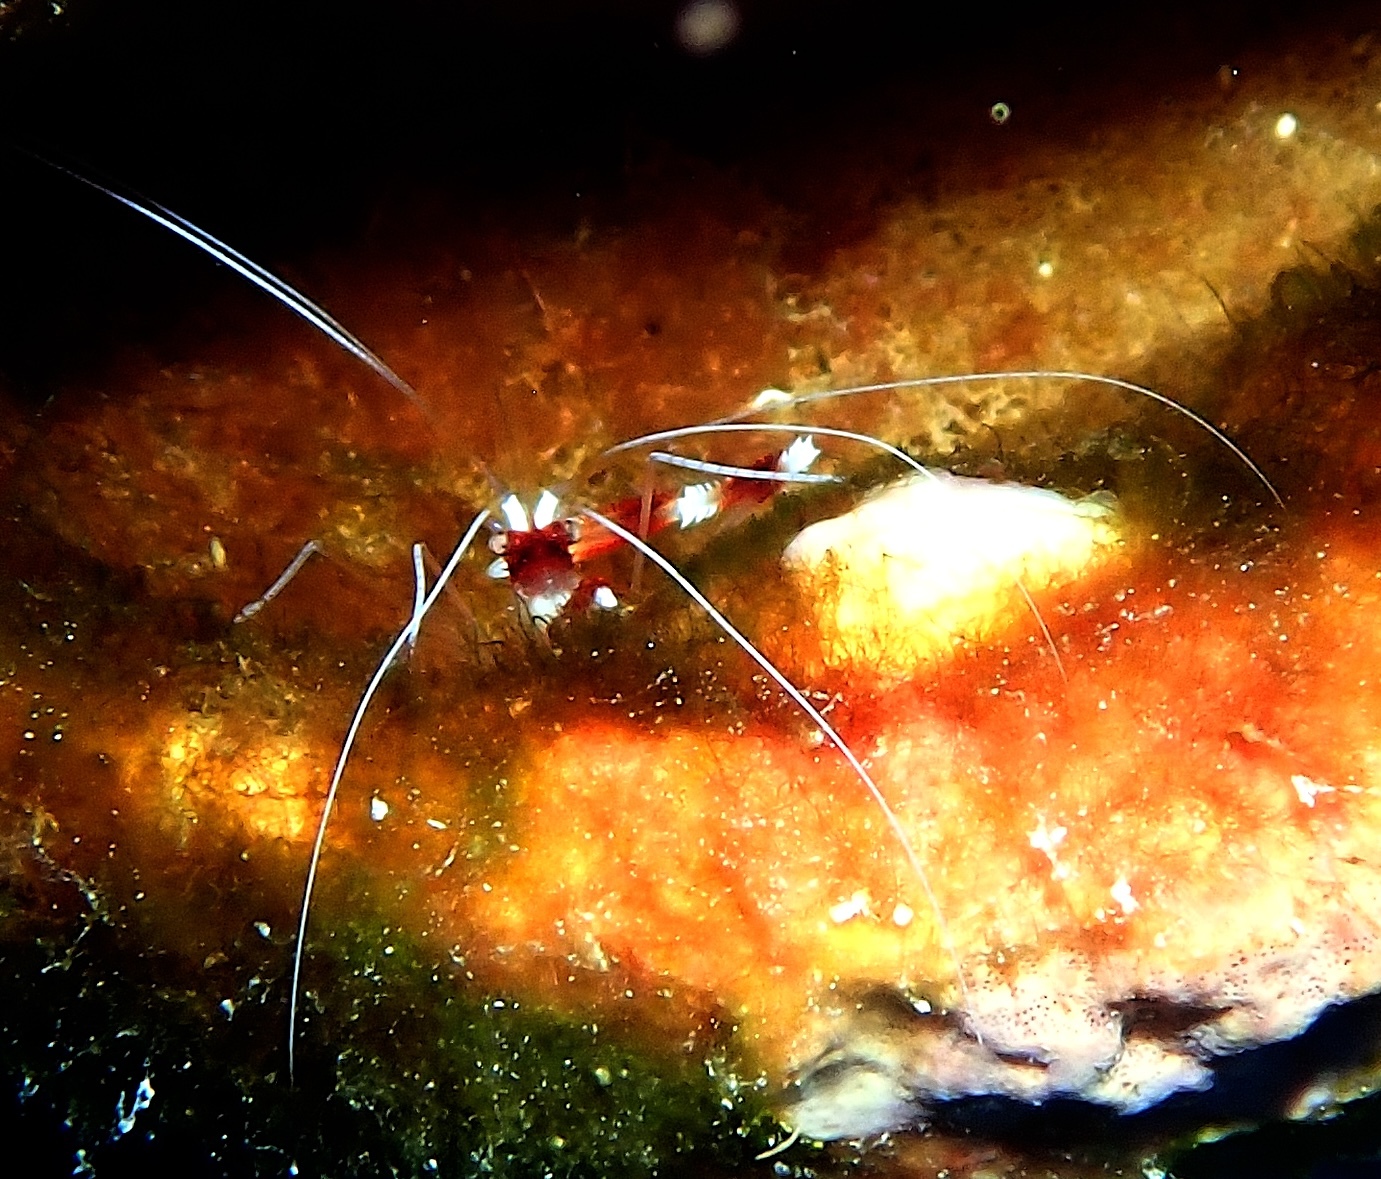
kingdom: Animalia
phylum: Arthropoda
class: Malacostraca
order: Decapoda
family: Stenopodidae
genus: Stenopus
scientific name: Stenopus hispidus
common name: Banded coral shrimp
